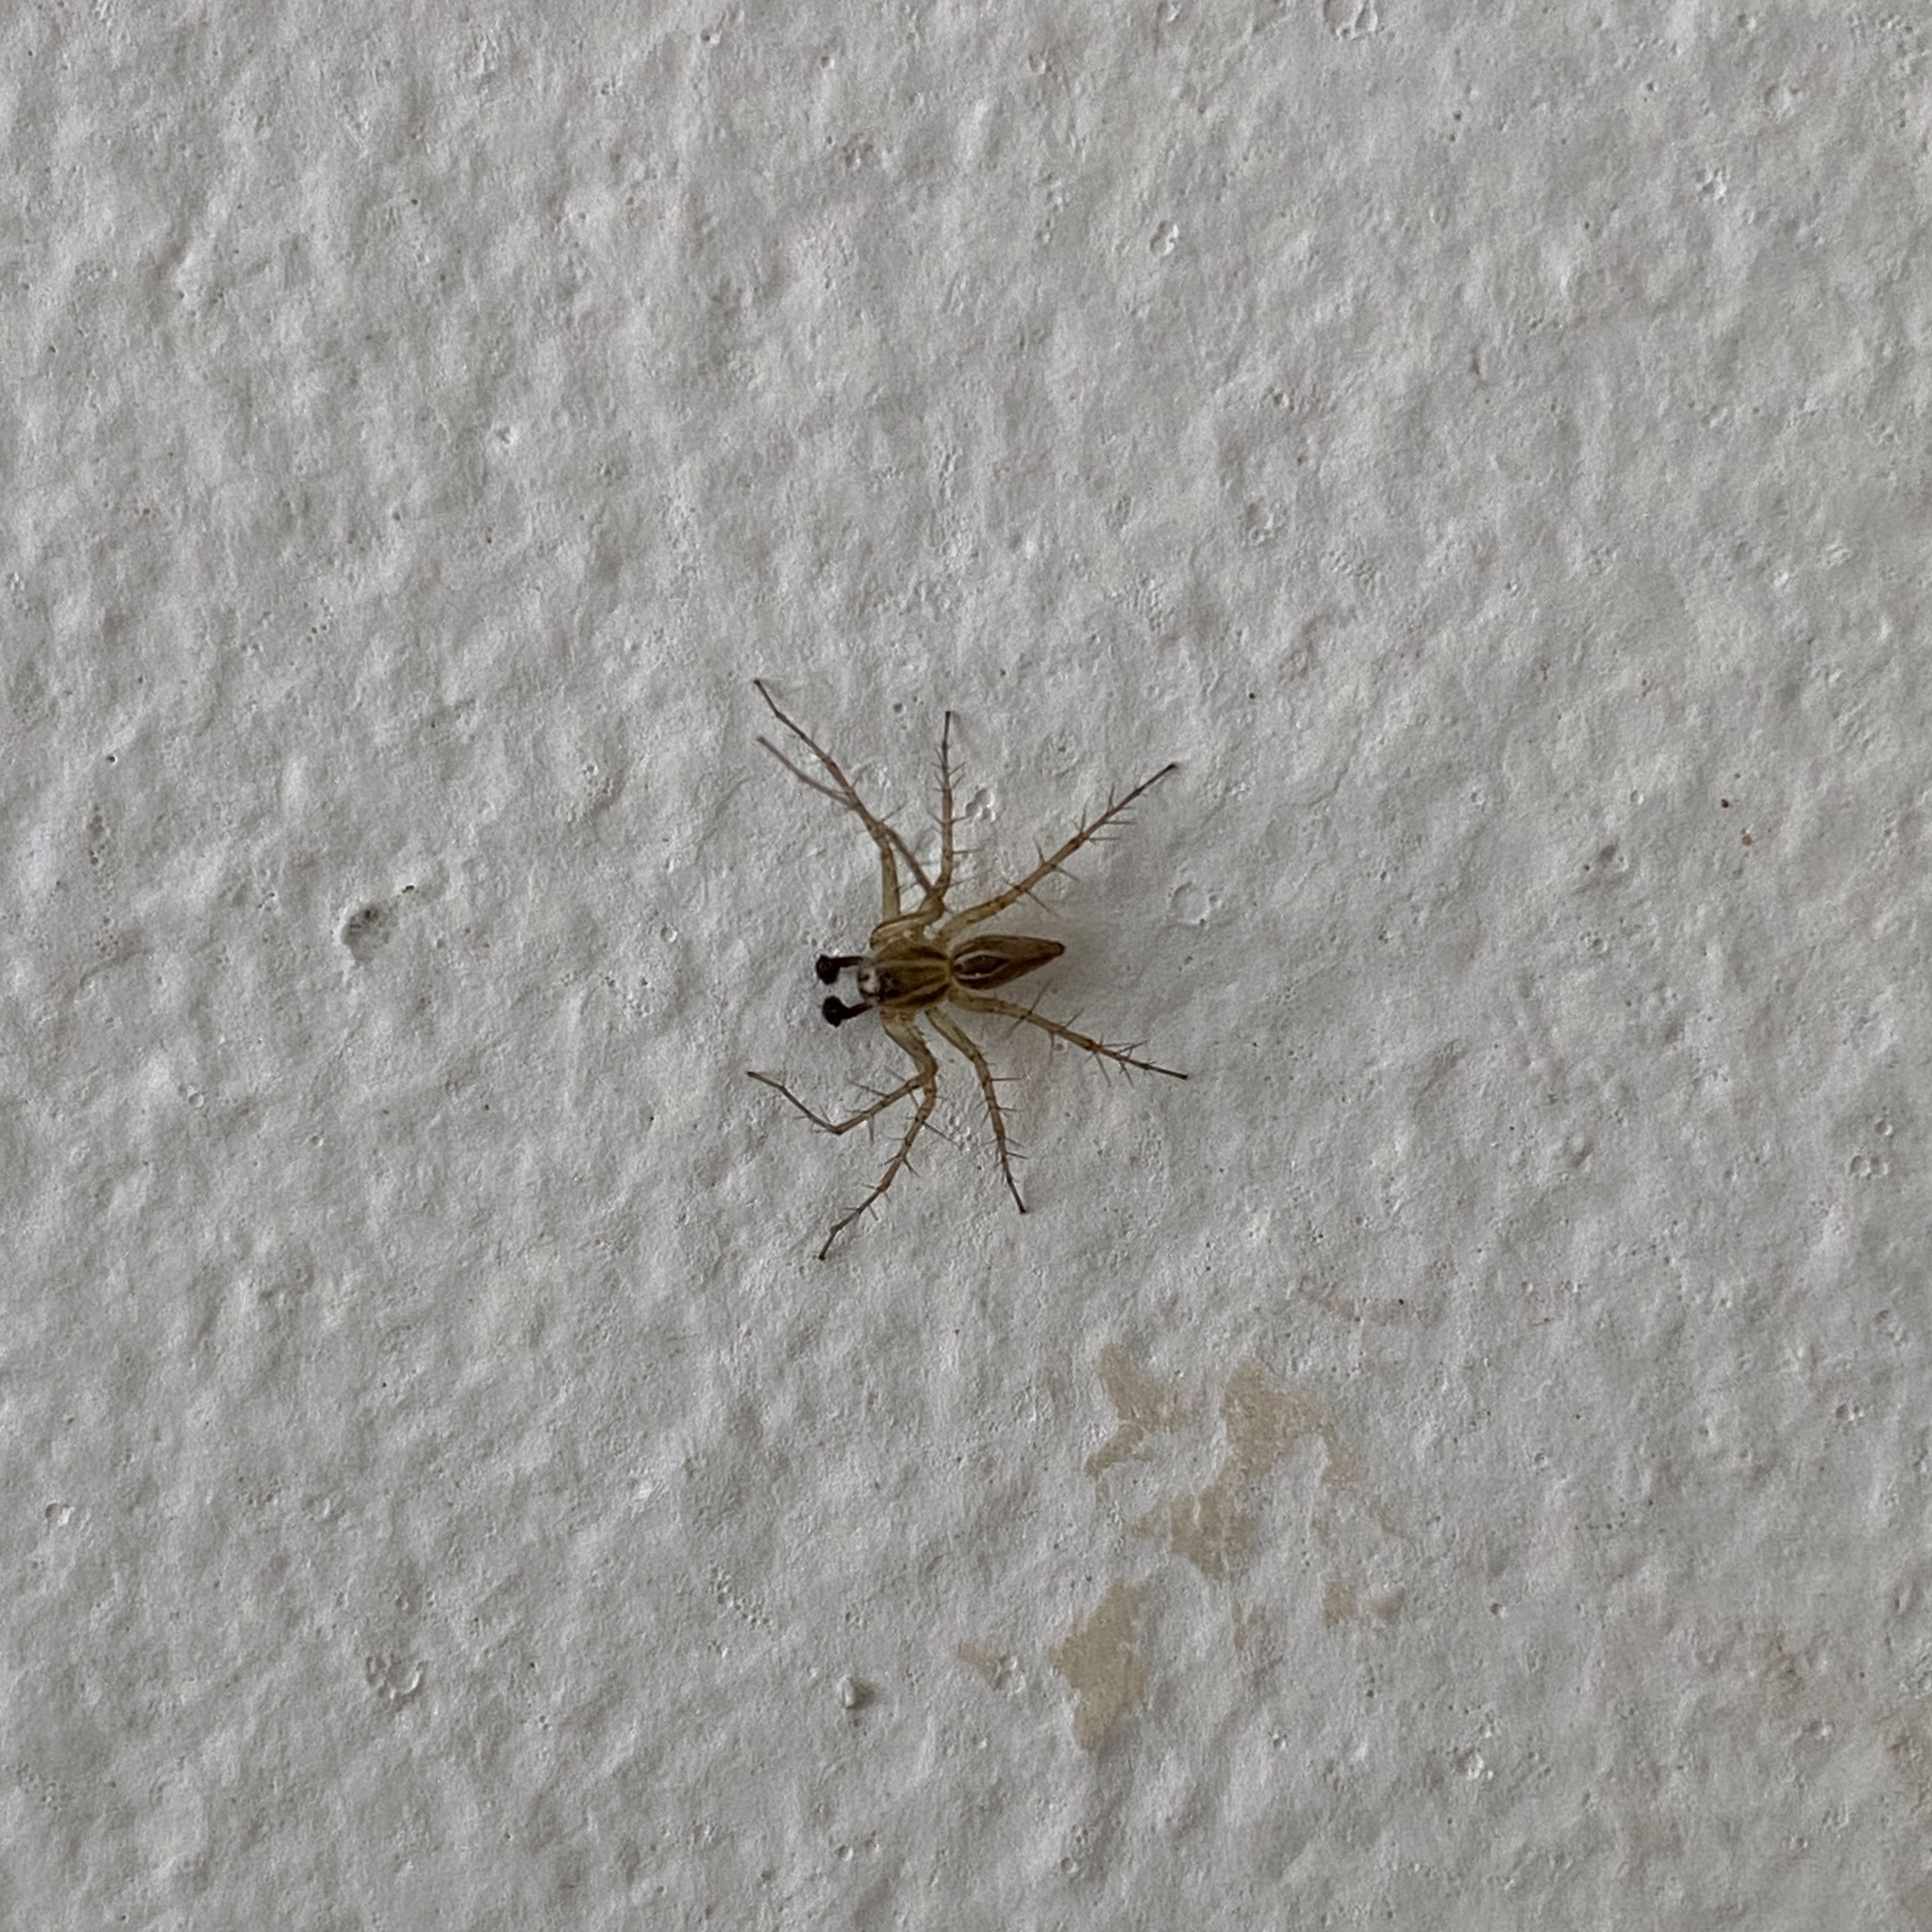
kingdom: Animalia
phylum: Arthropoda
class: Arachnida
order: Araneae
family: Oxyopidae
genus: Oxyopes
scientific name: Oxyopes salticus
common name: Lynx spiders
